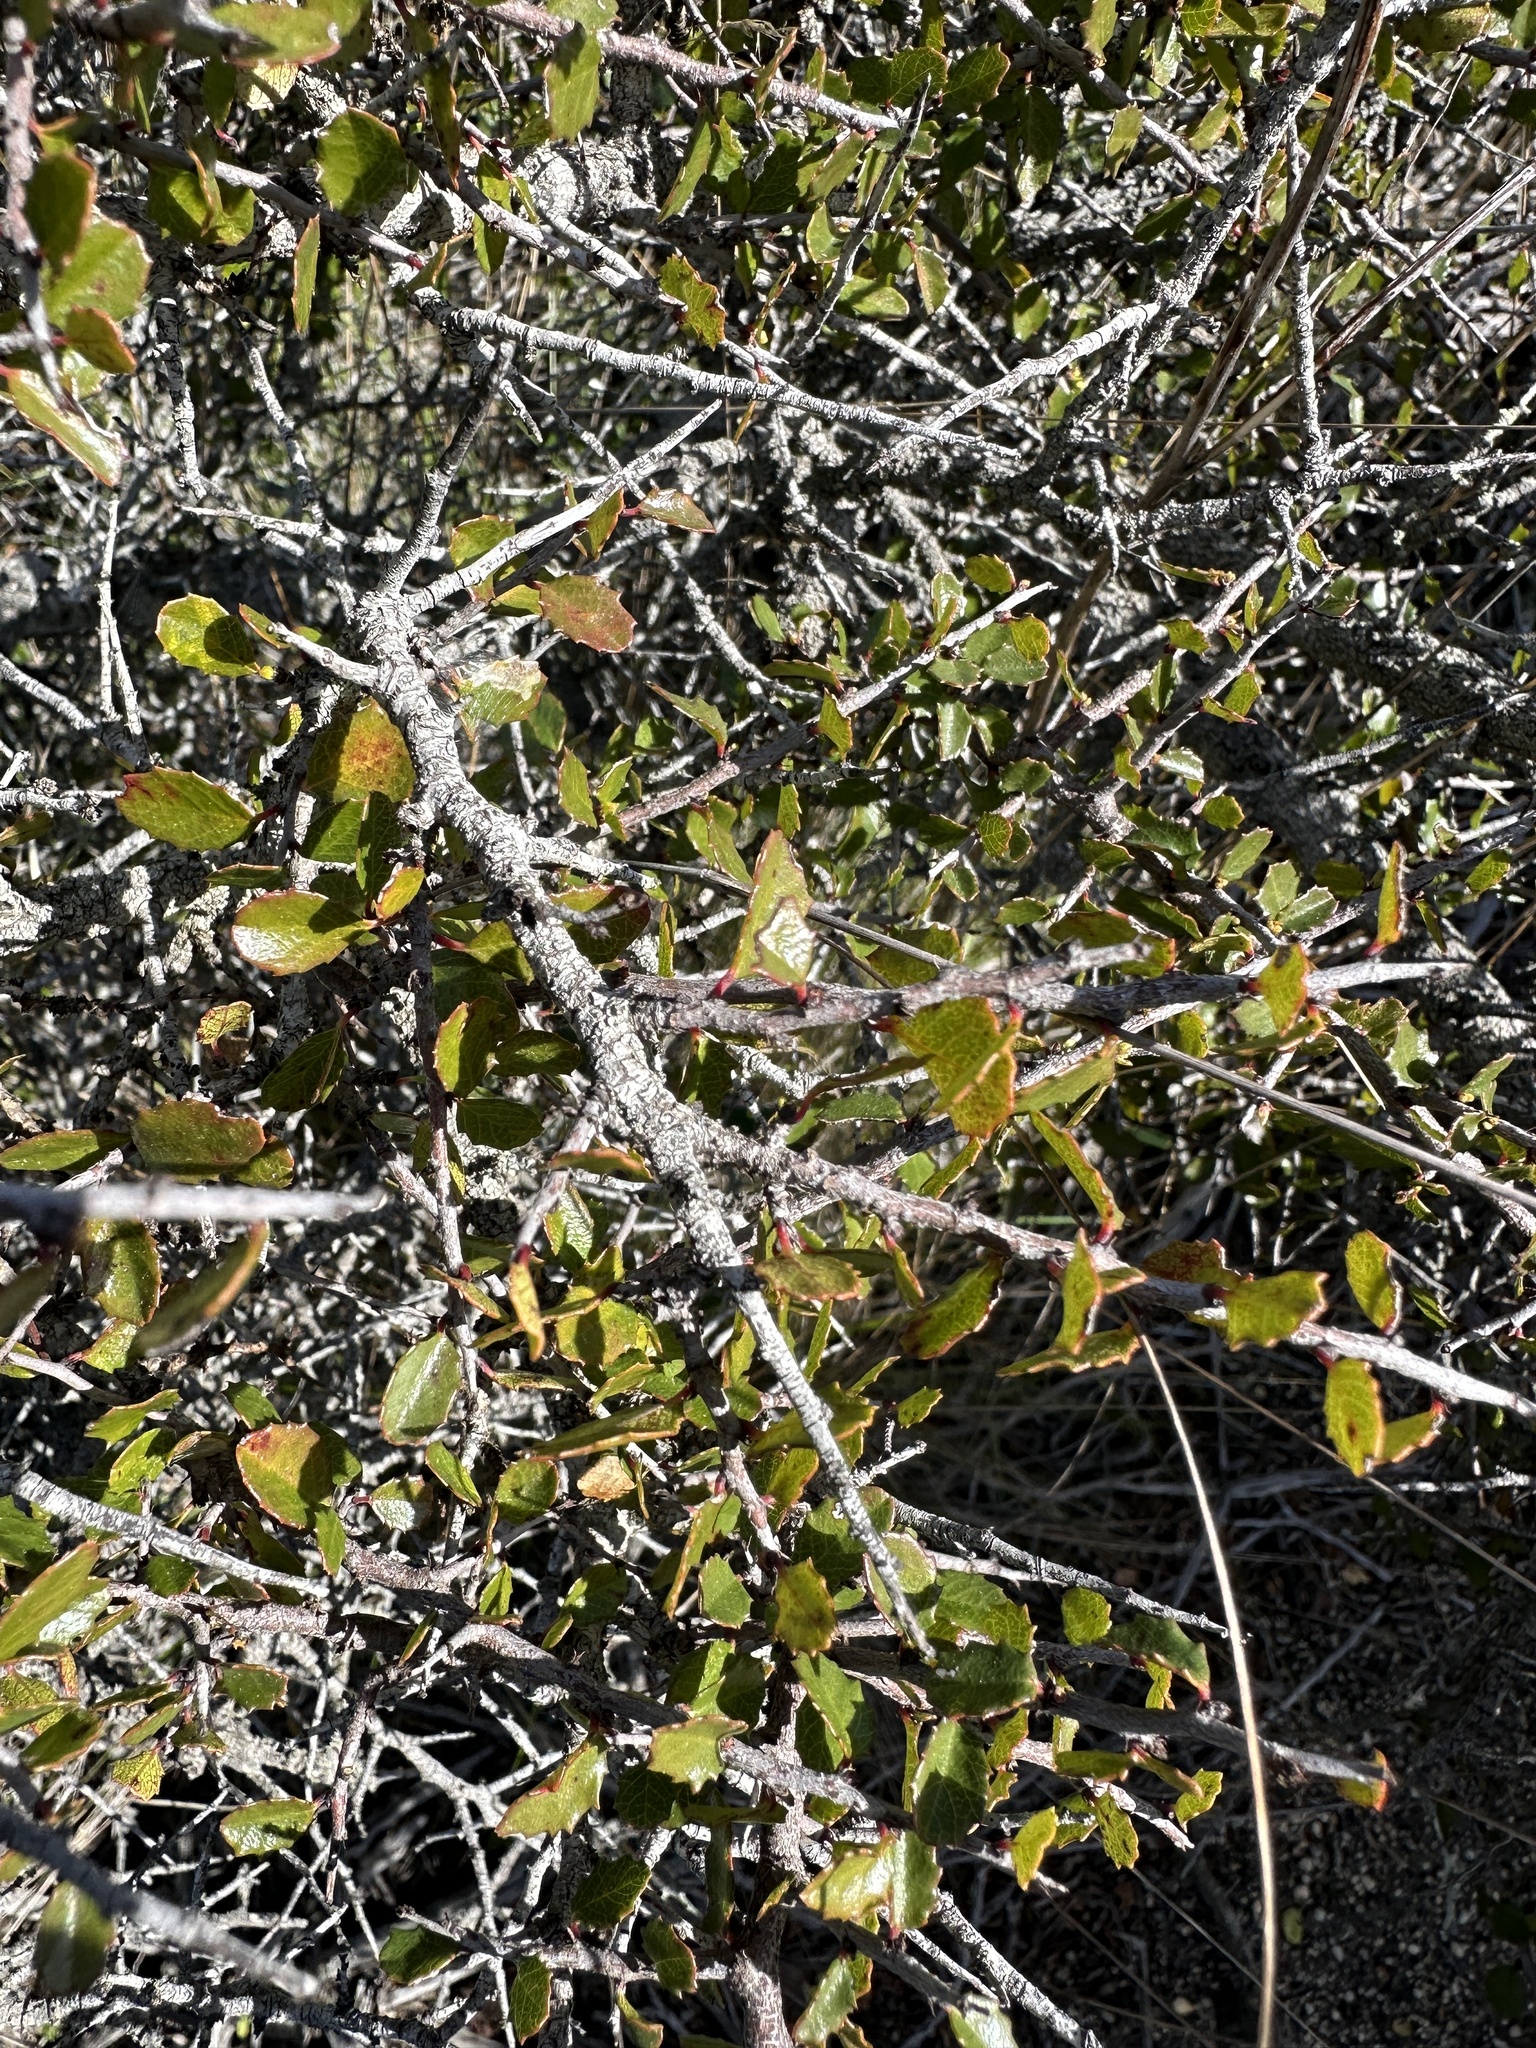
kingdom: Plantae
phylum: Tracheophyta
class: Magnoliopsida
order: Rosales
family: Rhamnaceae
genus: Endotropis
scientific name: Endotropis crocea
